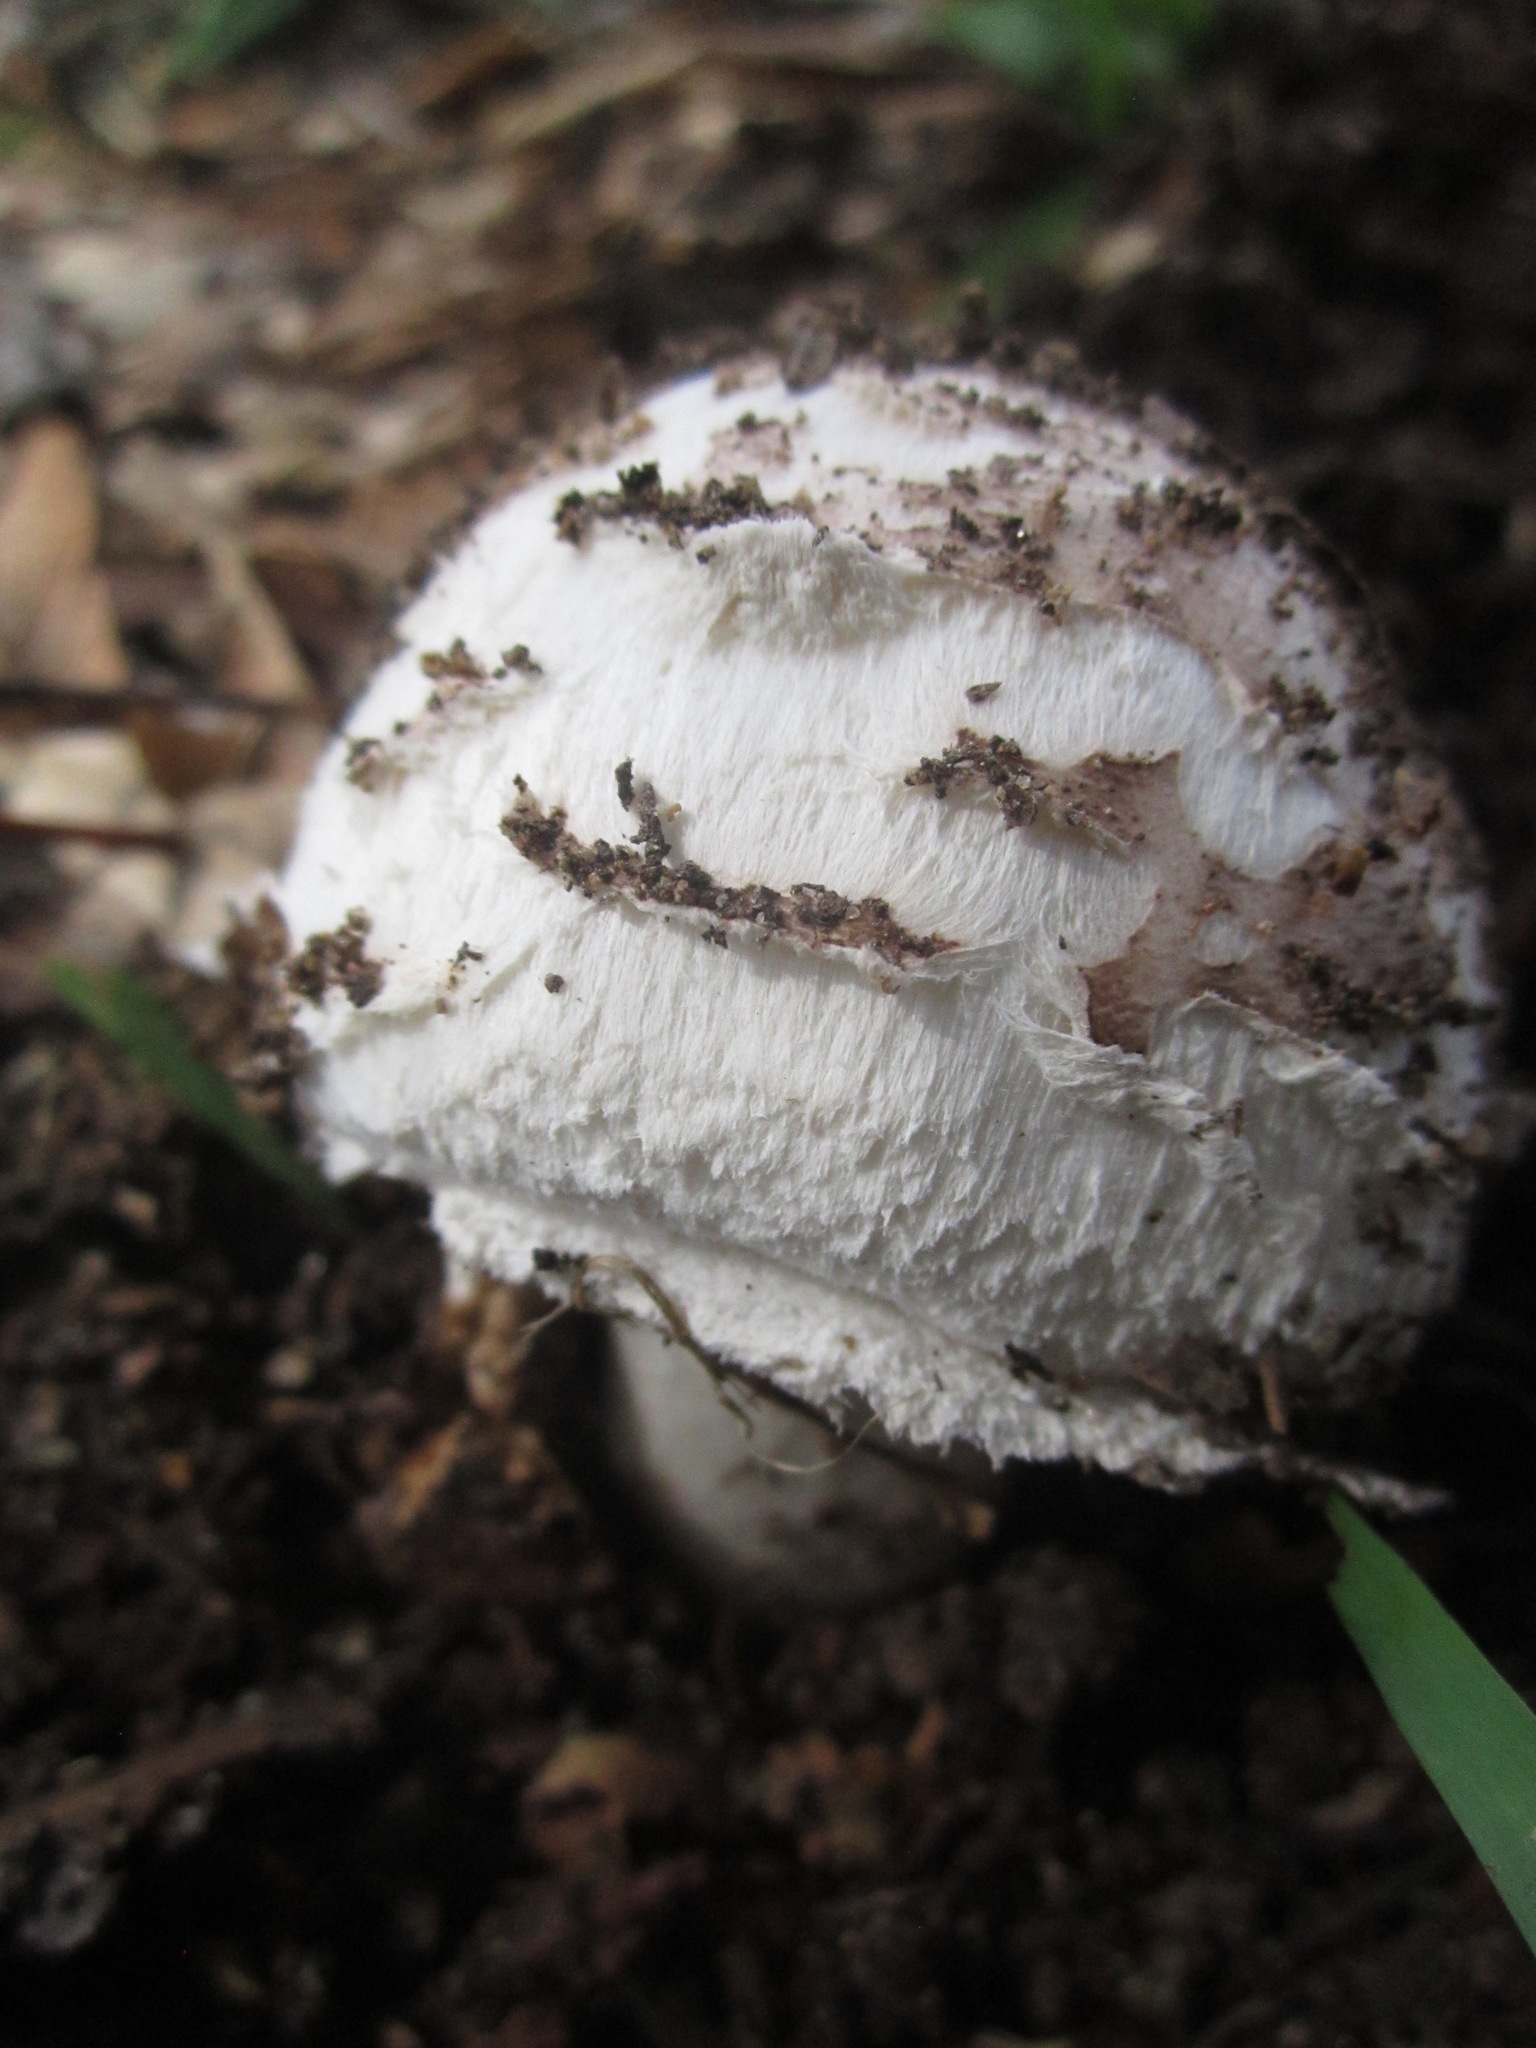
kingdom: Fungi
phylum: Basidiomycota
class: Agaricomycetes
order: Agaricales
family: Agaricaceae
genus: Chlorophyllum
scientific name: Chlorophyllum brunneum
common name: Brown parasol
